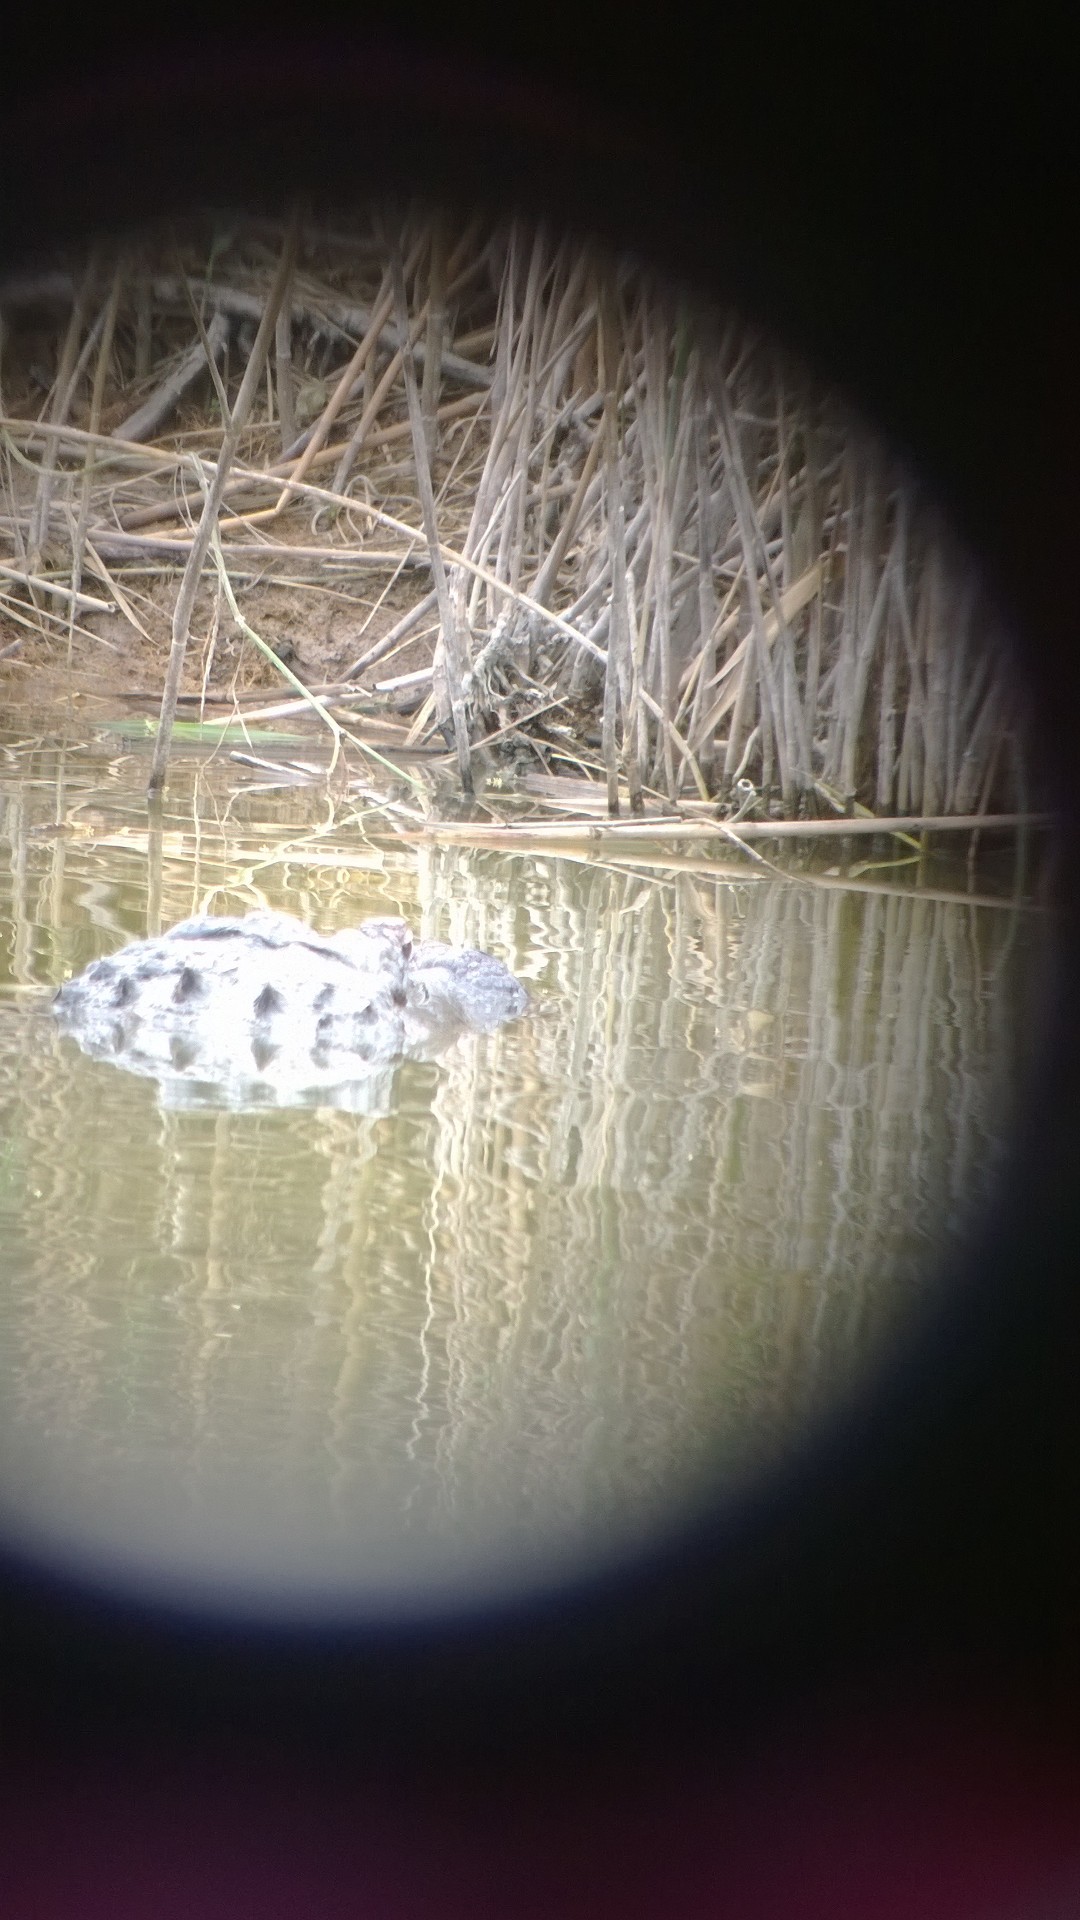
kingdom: Animalia
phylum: Chordata
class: Crocodylia
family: Alligatoridae
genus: Alligator
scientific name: Alligator mississippiensis
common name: American alligator
